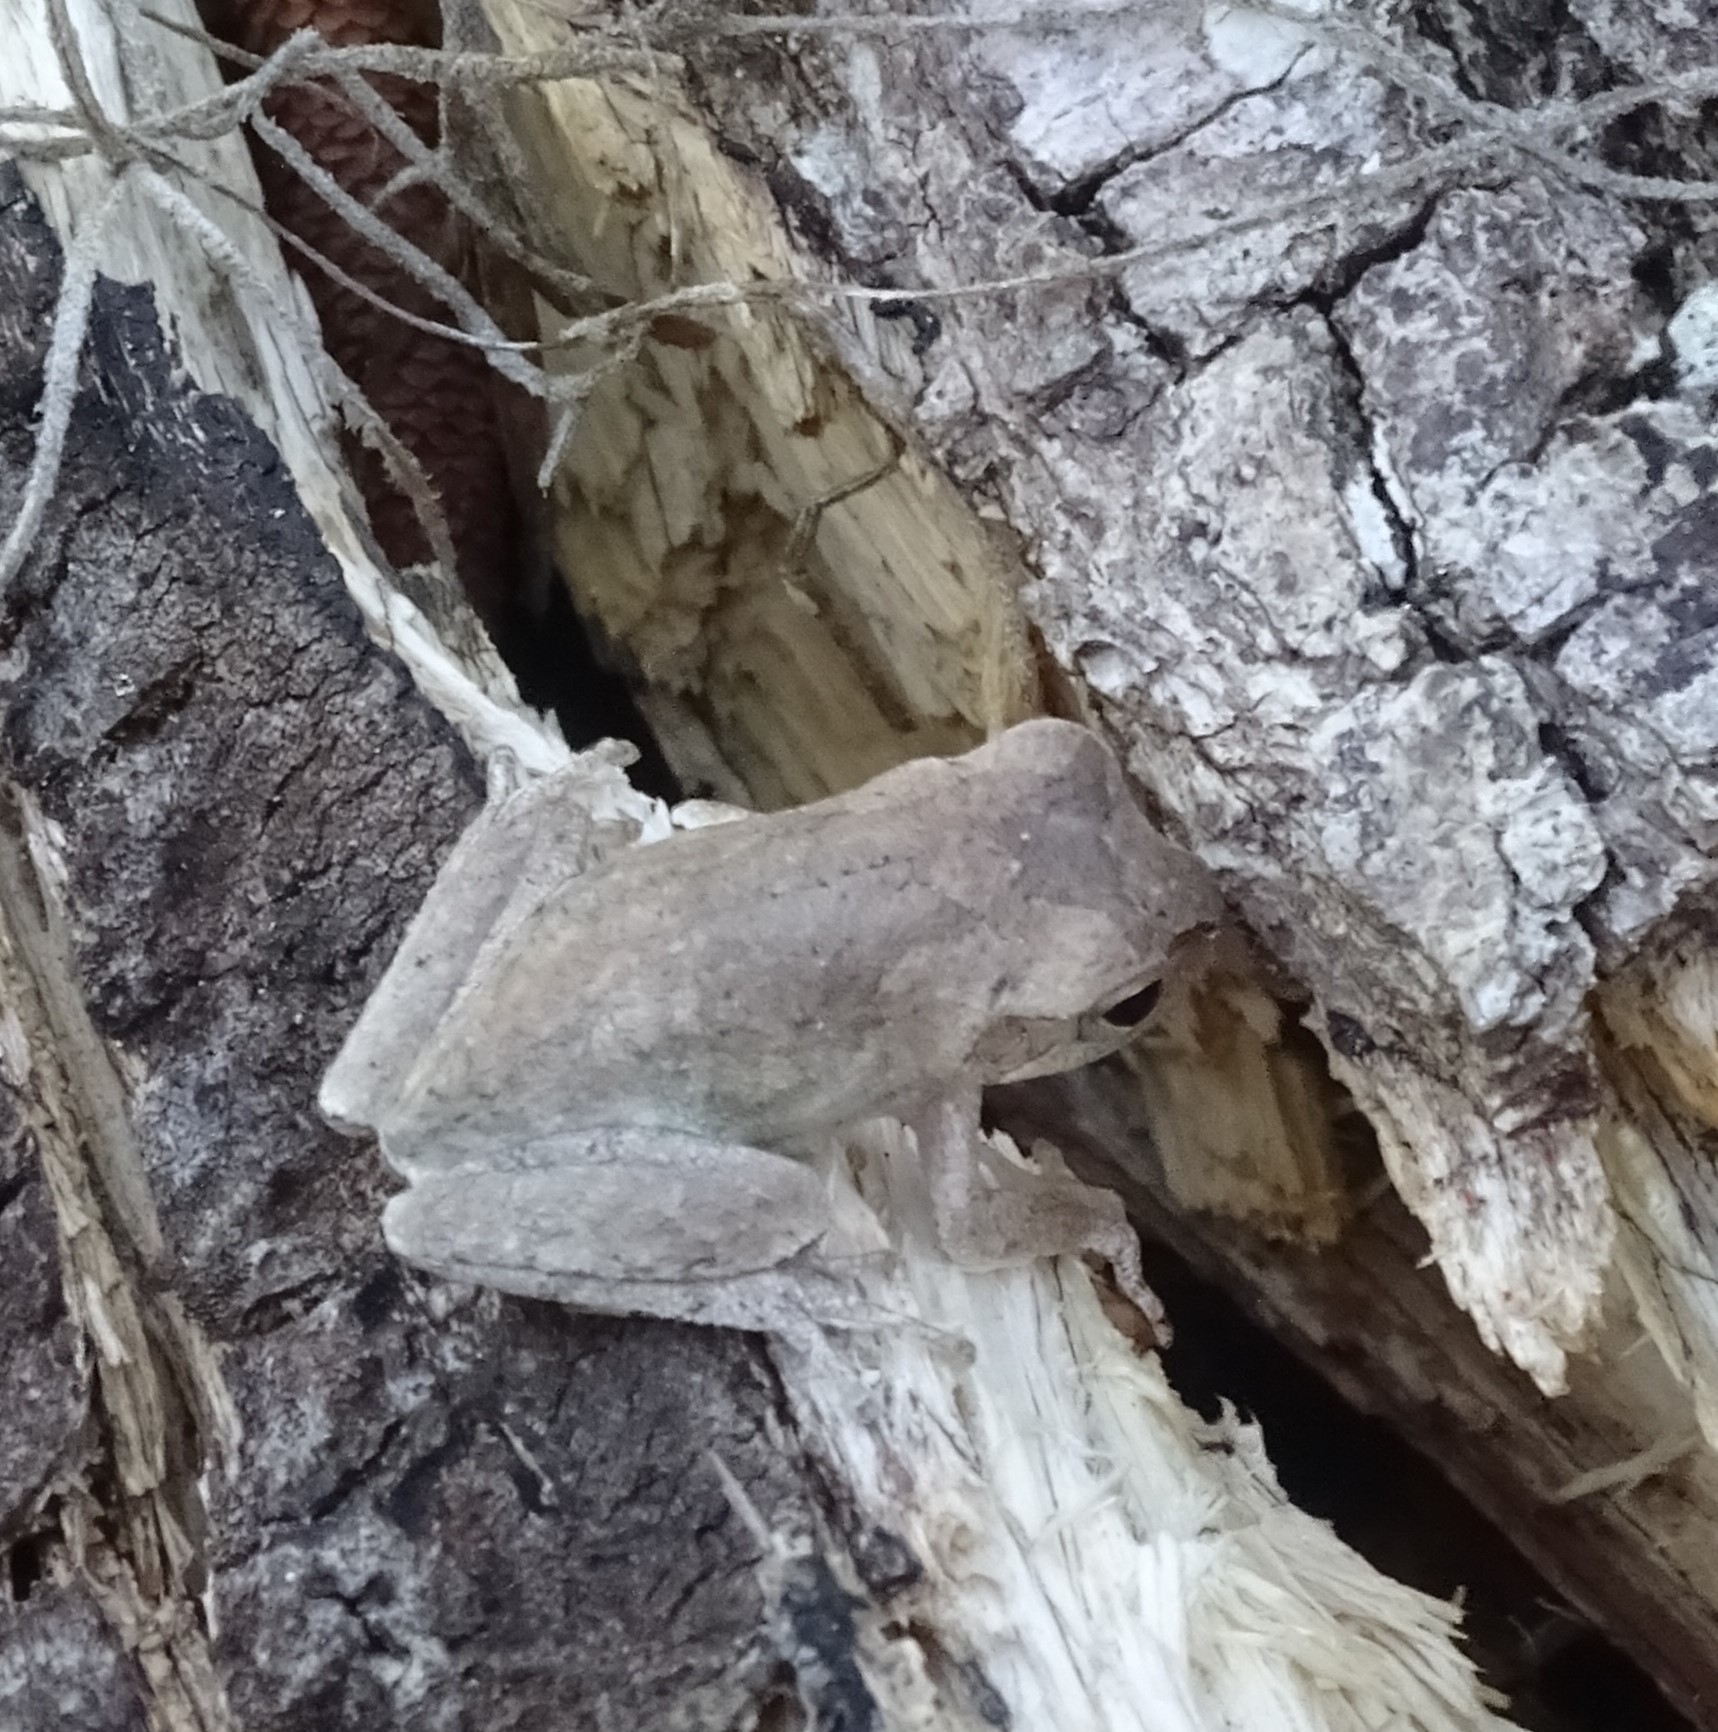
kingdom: Animalia
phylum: Chordata
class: Amphibia
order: Anura
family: Hylidae
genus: Hyla
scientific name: Hyla femoralis
